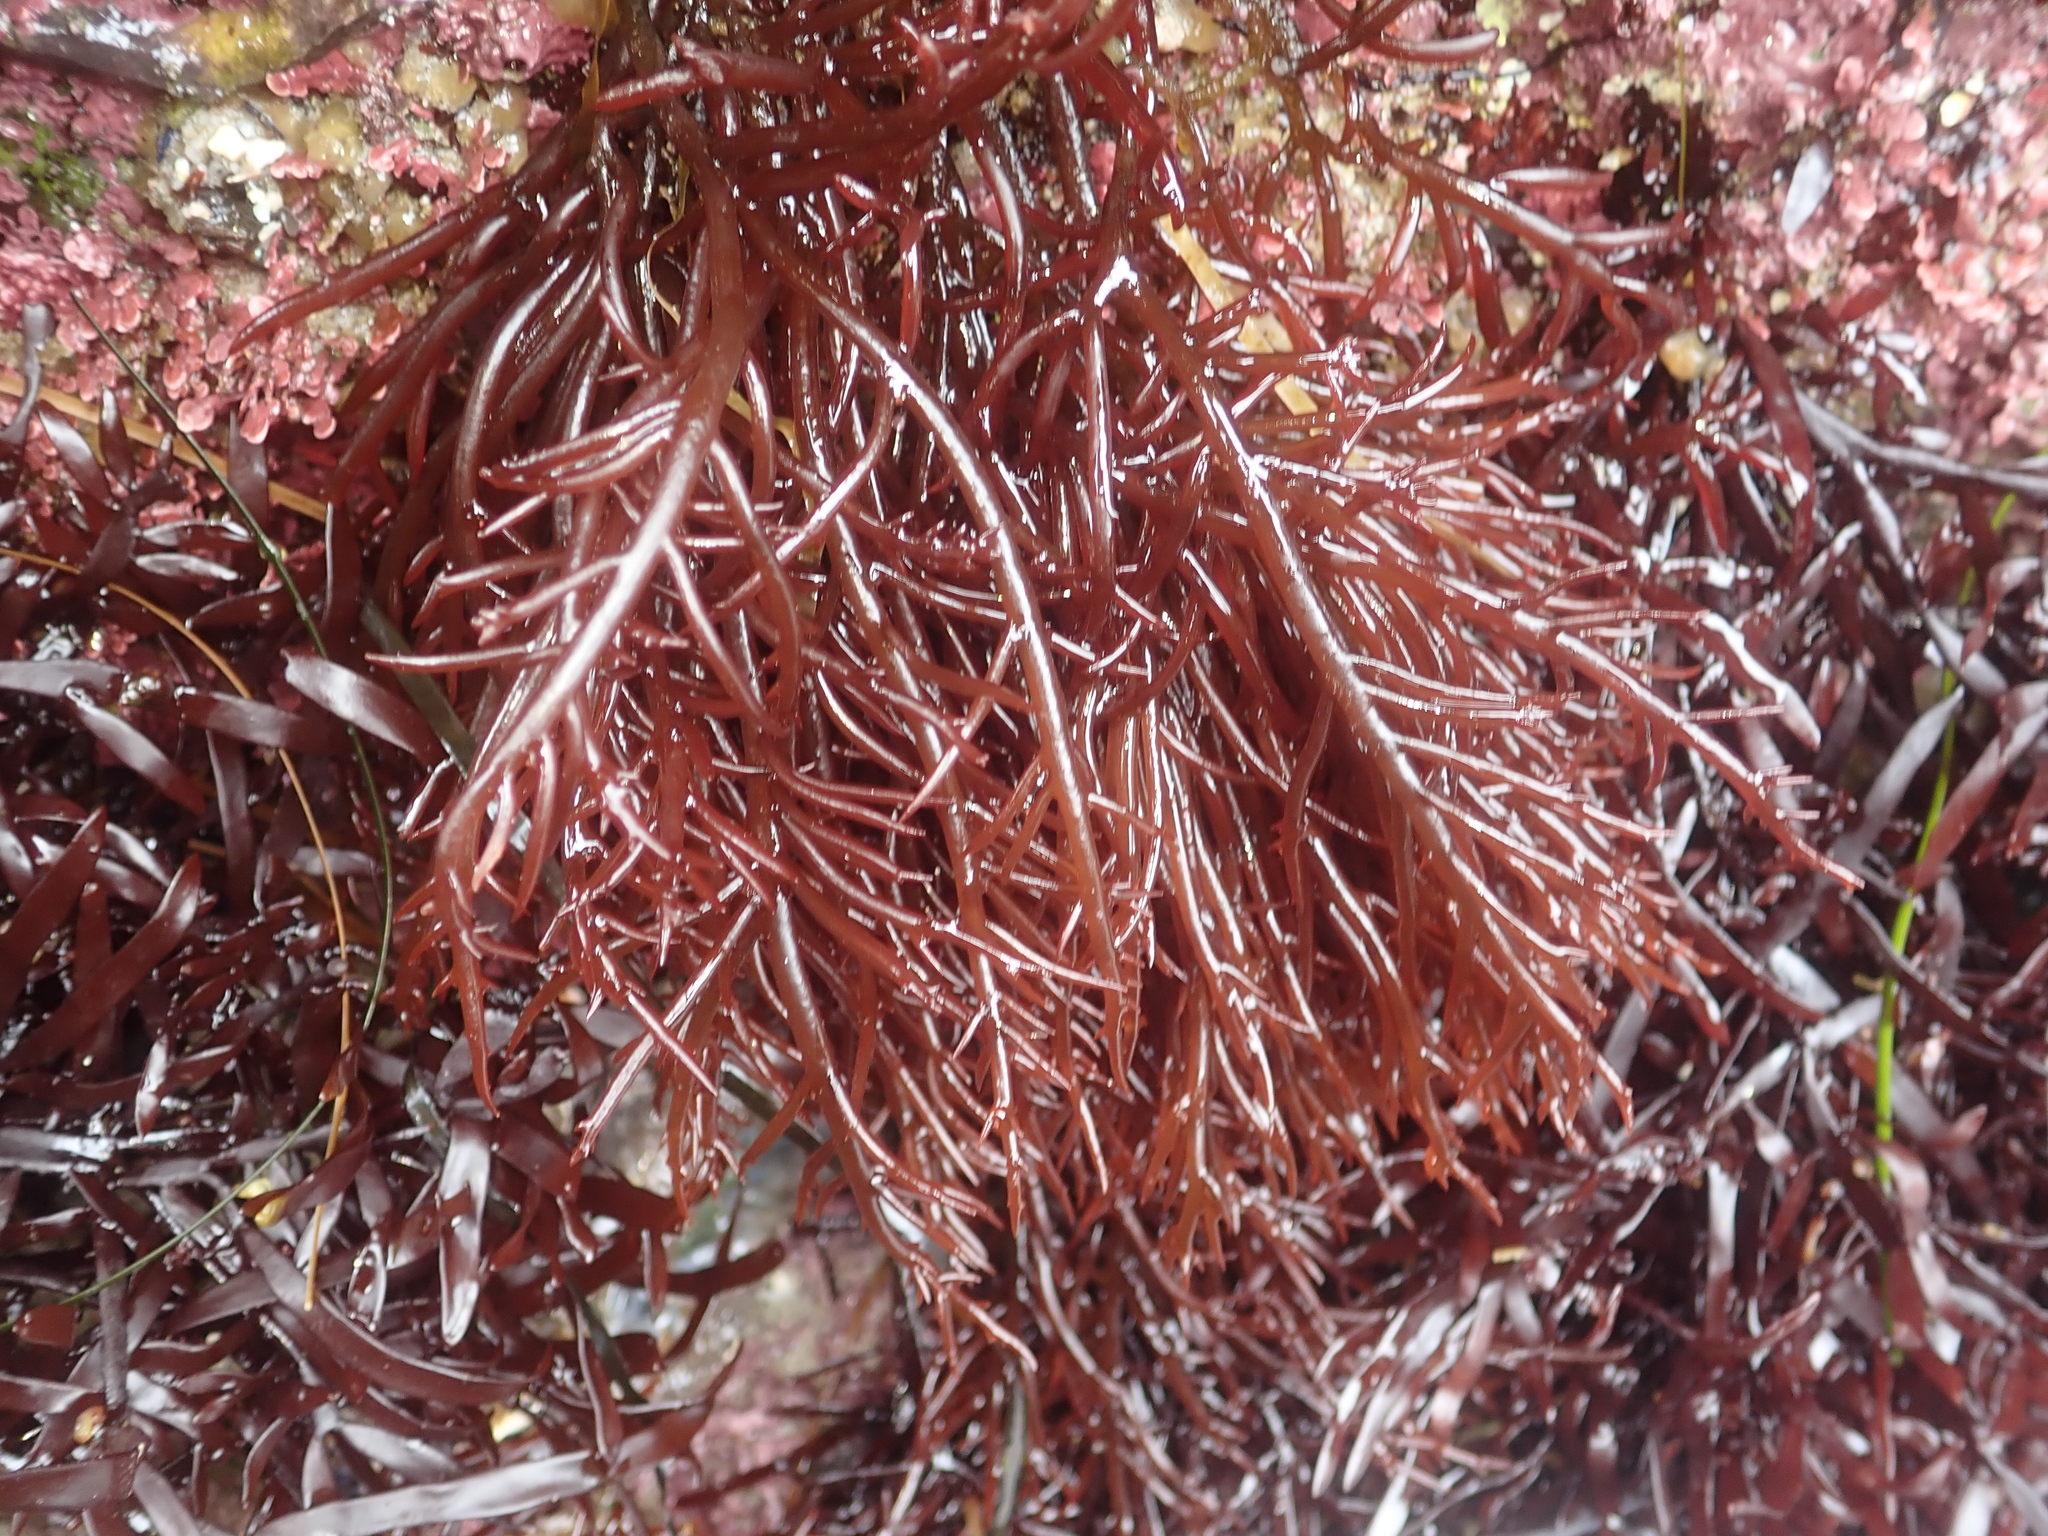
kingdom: Plantae
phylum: Rhodophyta
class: Florideophyceae
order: Gigartinales
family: Solieriaceae
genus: Sarcodiotheca
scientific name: Sarcodiotheca gaudichaudii
